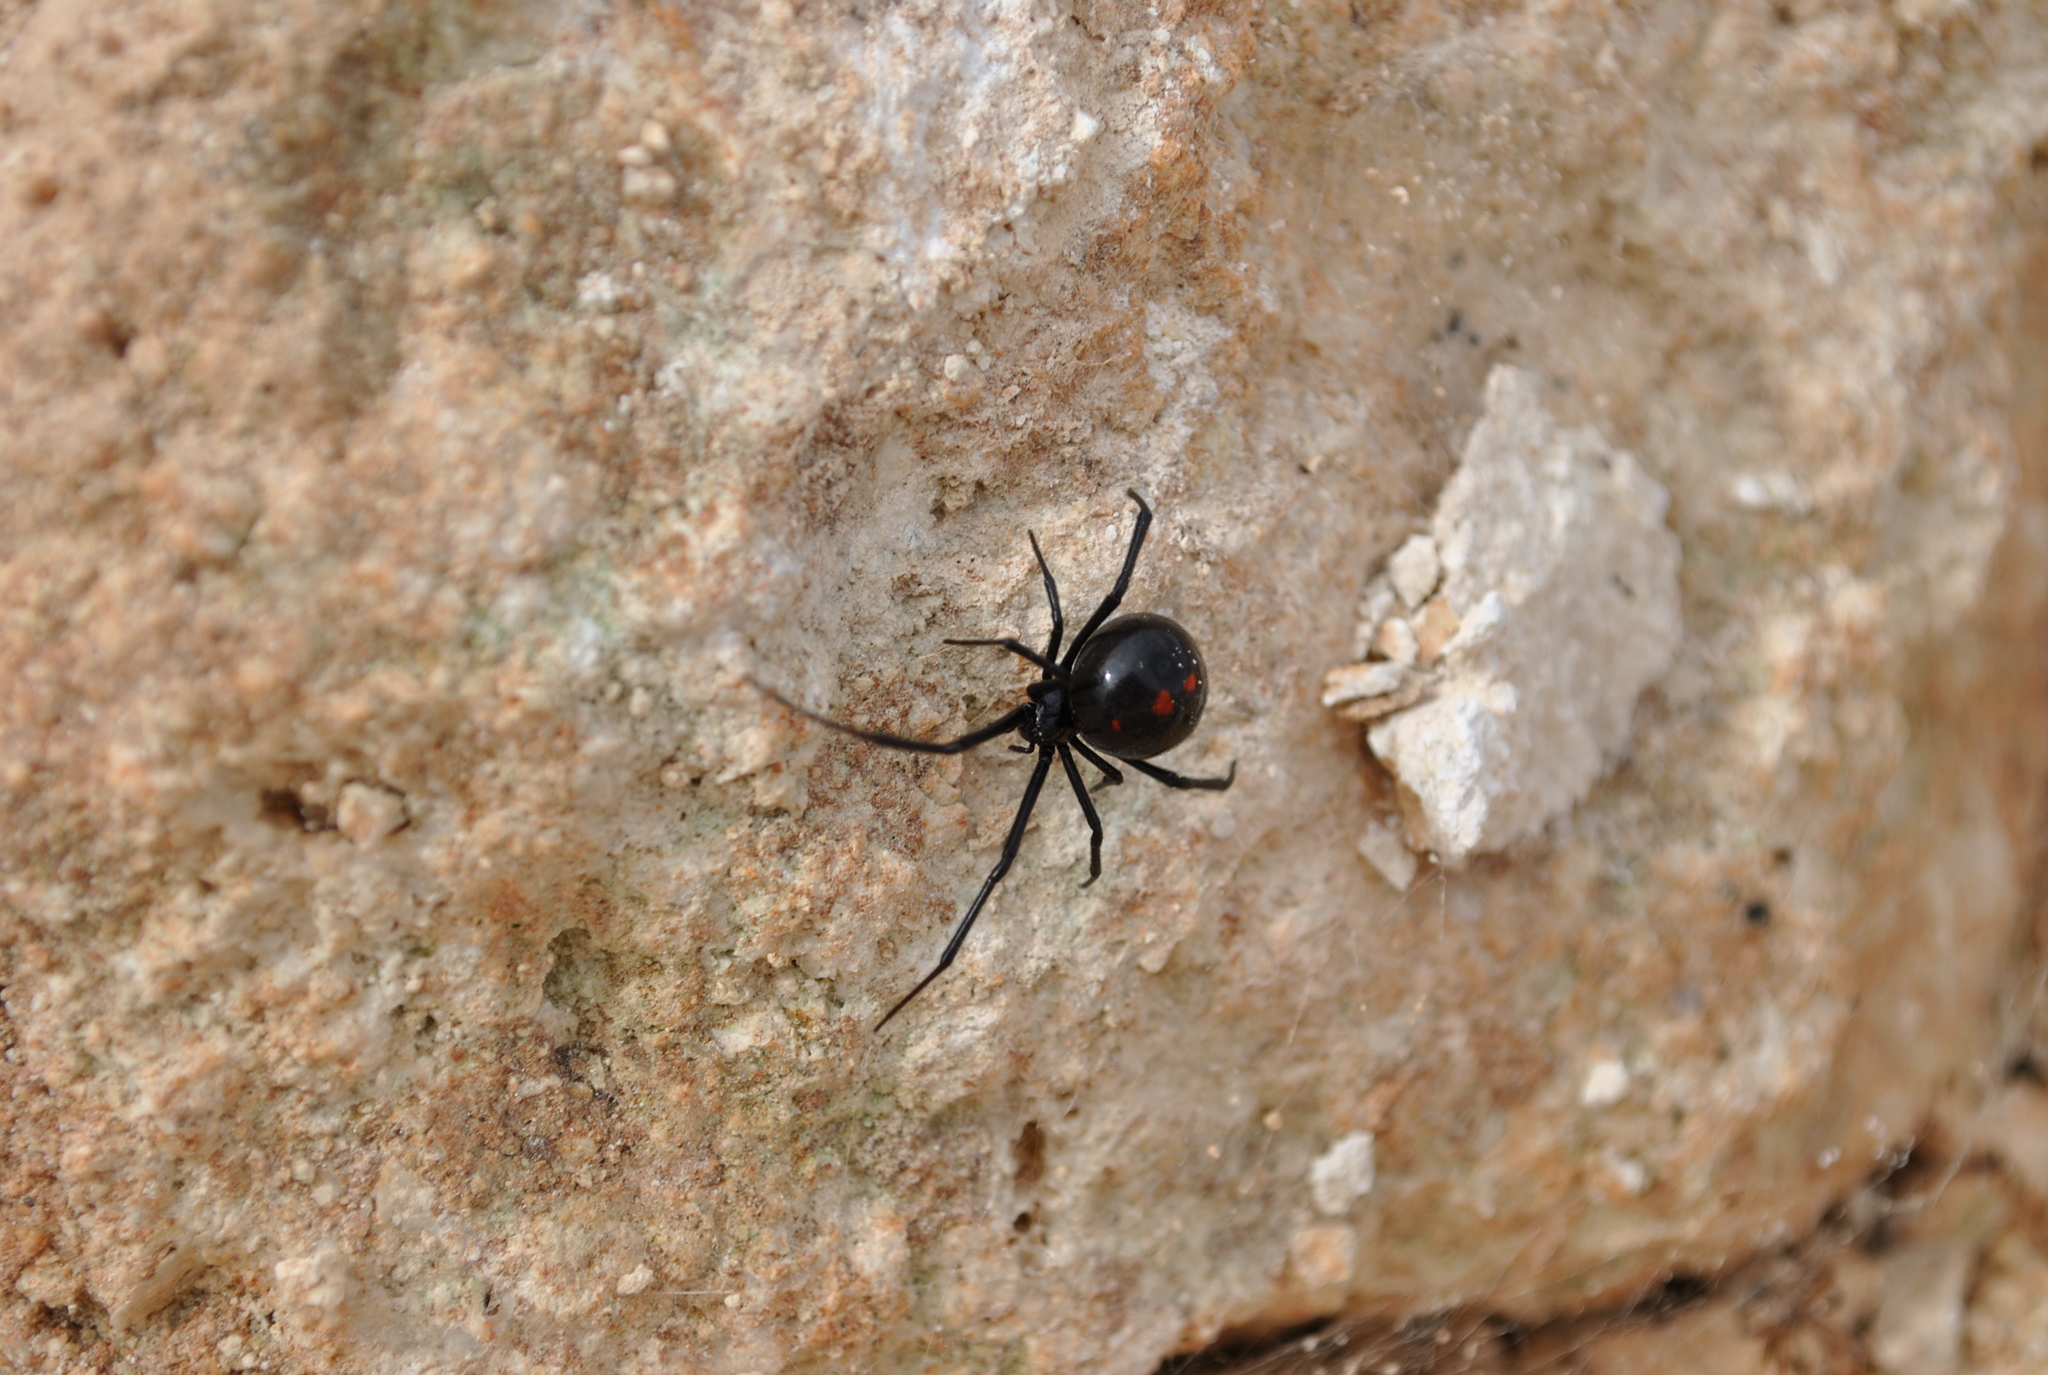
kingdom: Animalia
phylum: Arthropoda
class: Arachnida
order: Araneae
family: Theridiidae
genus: Latrodectus
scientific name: Latrodectus mactans
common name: Cobweb spiders
